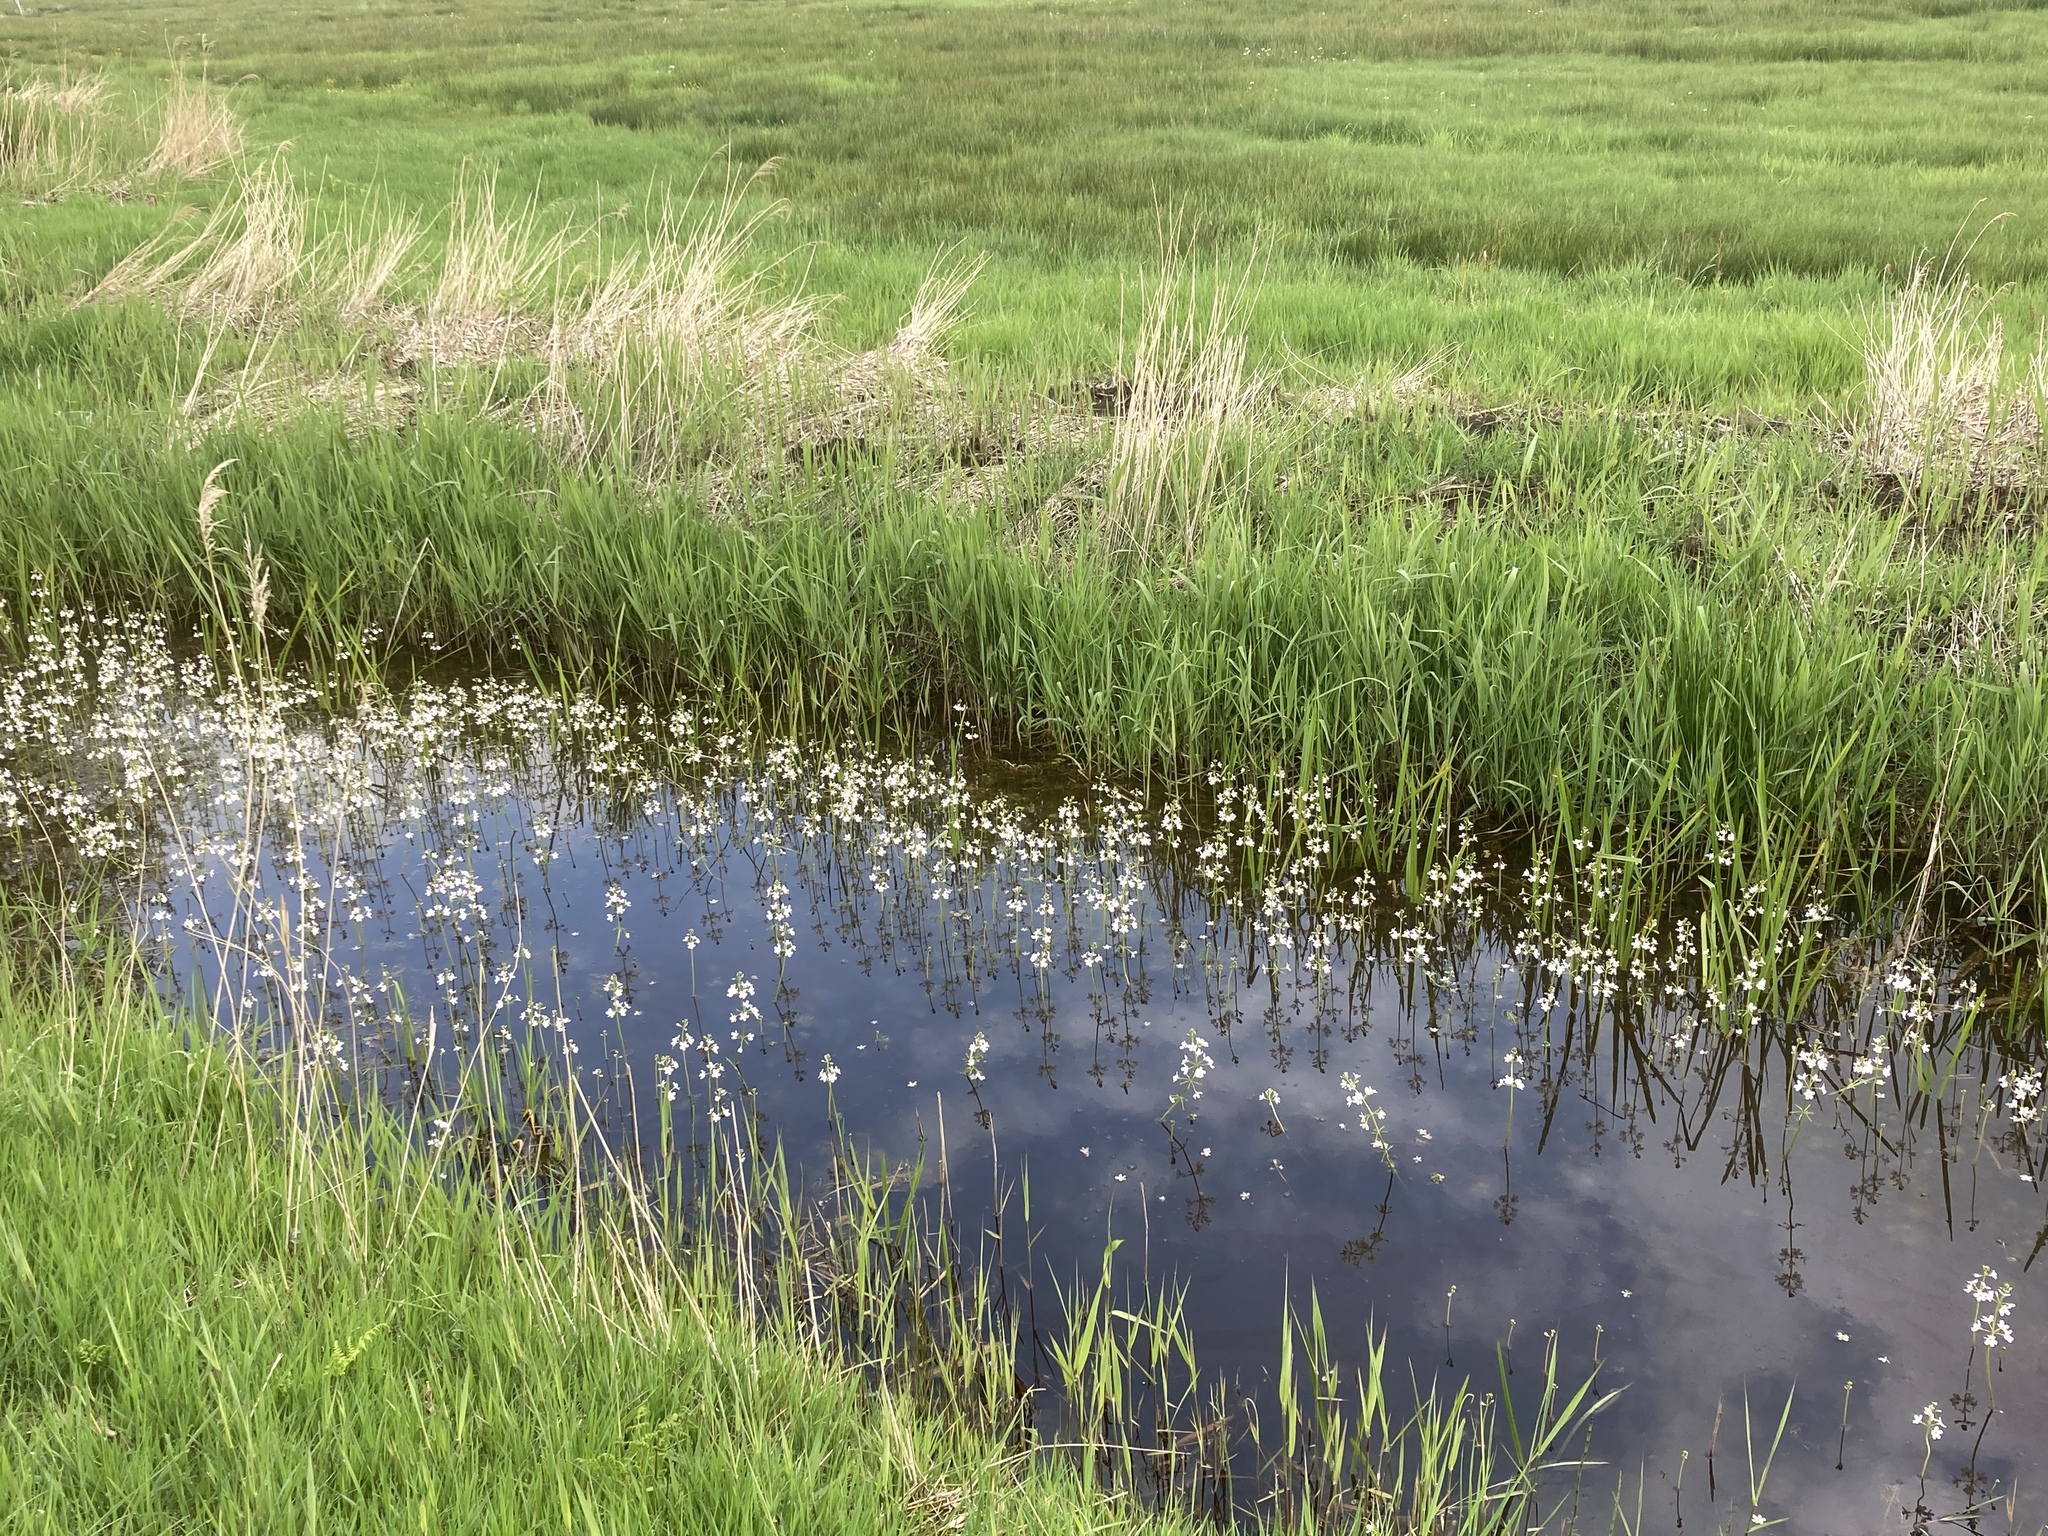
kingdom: Plantae
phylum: Tracheophyta
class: Magnoliopsida
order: Ericales
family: Primulaceae
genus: Hottonia
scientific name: Hottonia palustris
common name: Water-violet
